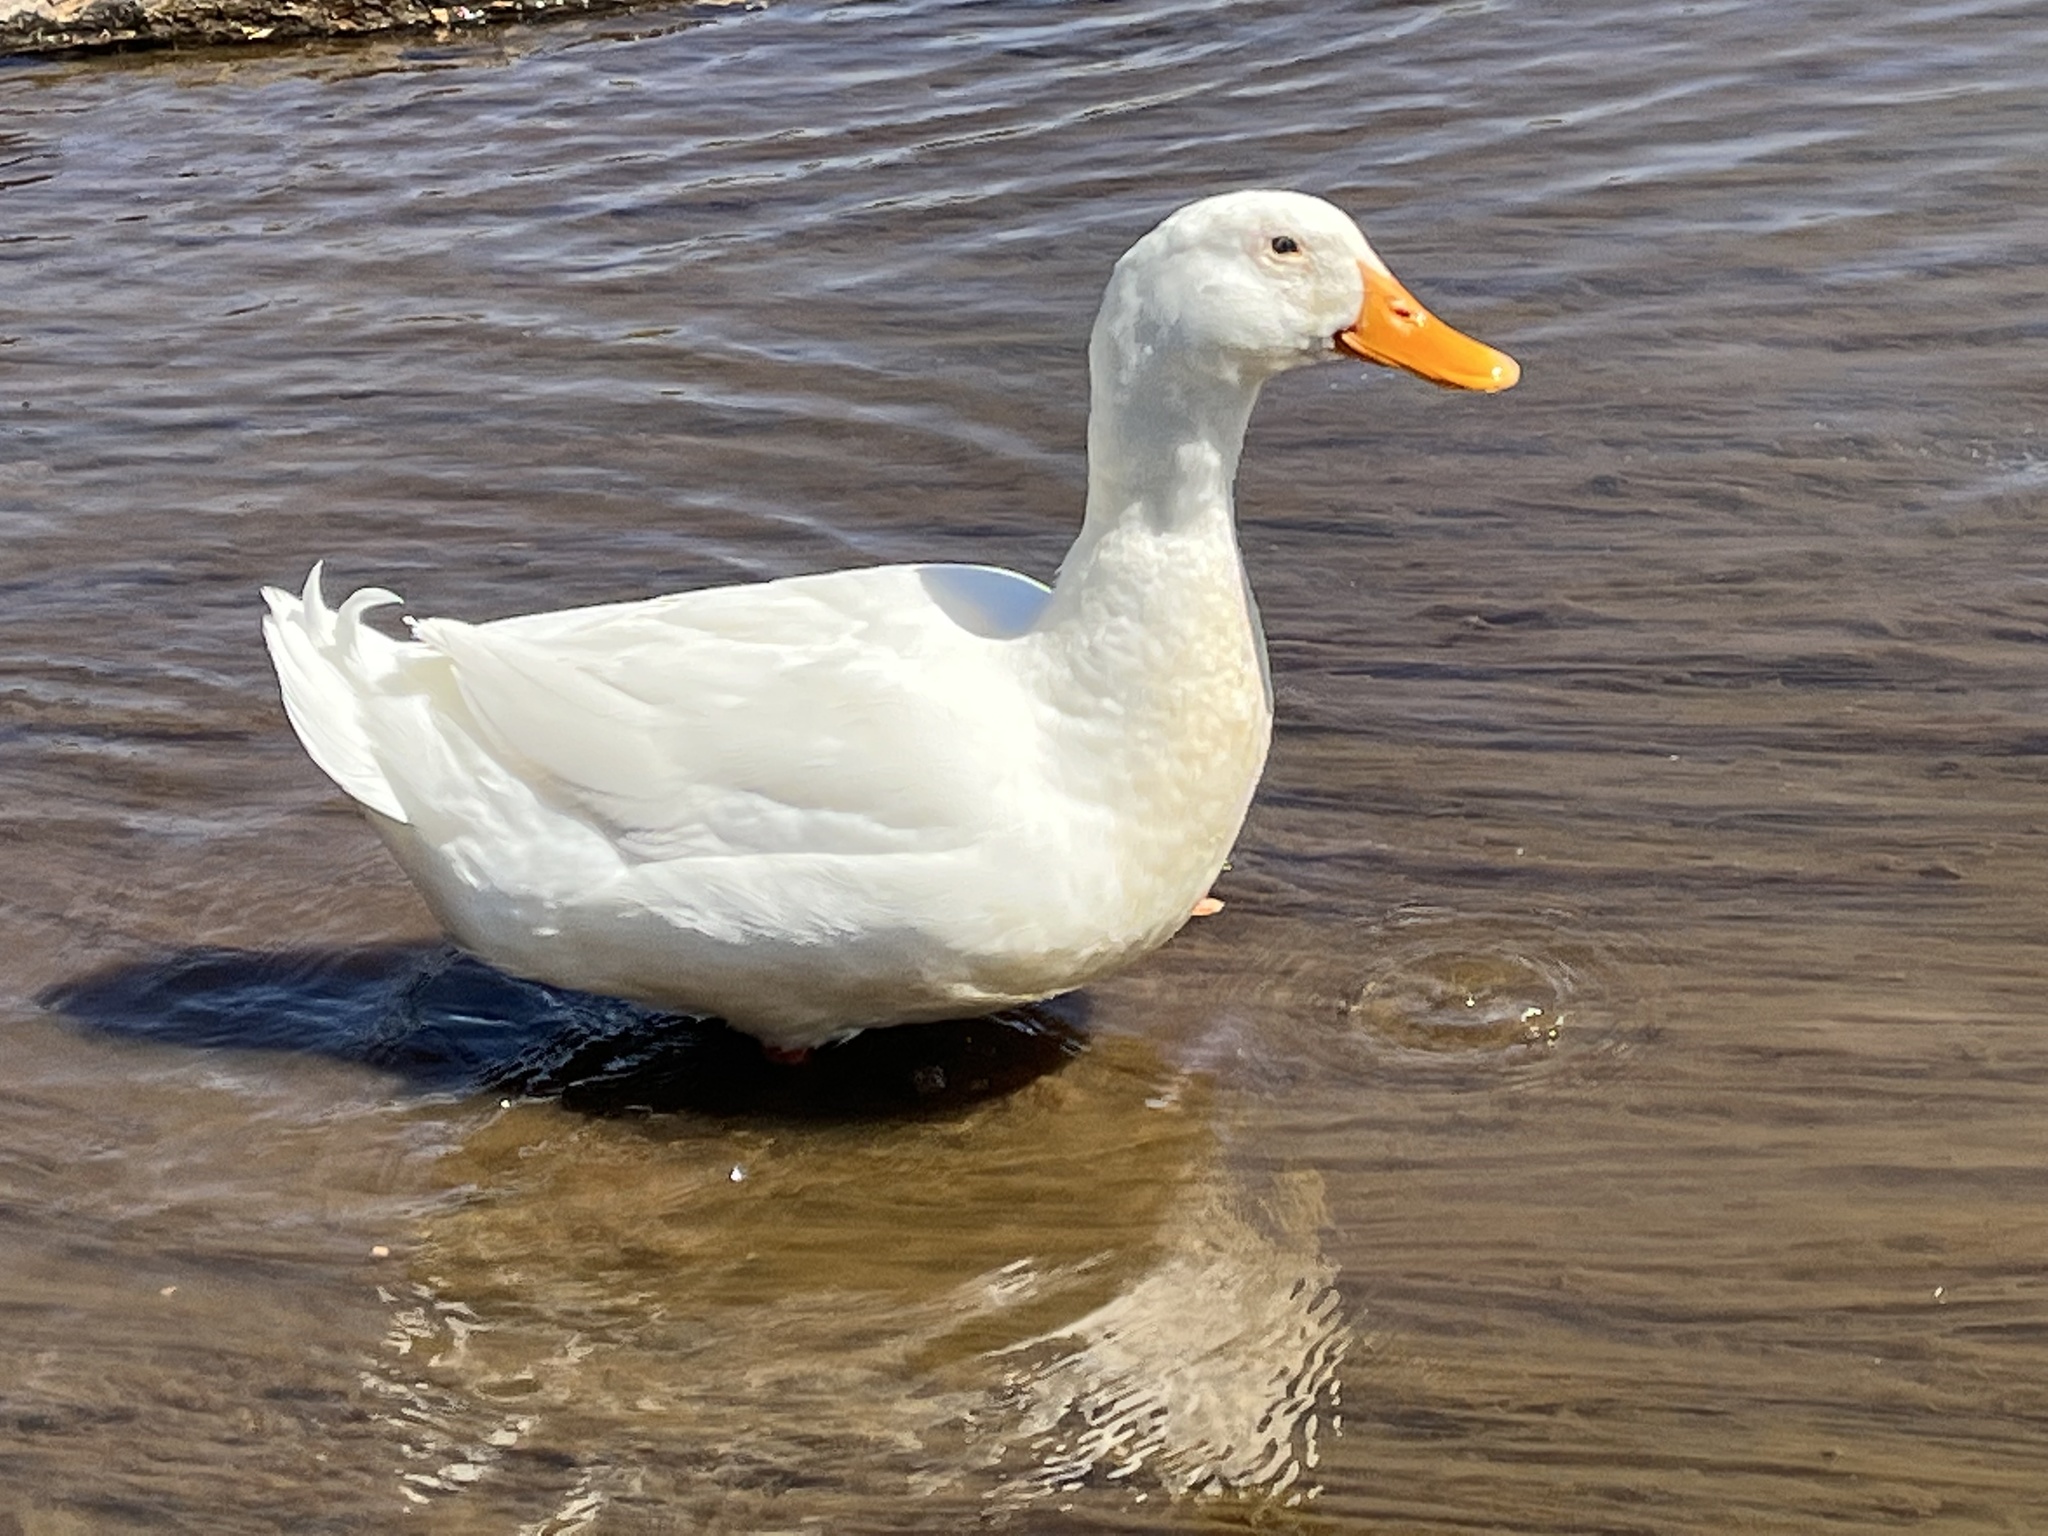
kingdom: Animalia
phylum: Chordata
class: Aves
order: Anseriformes
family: Anatidae
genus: Anas
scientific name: Anas platyrhynchos
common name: Mallard
